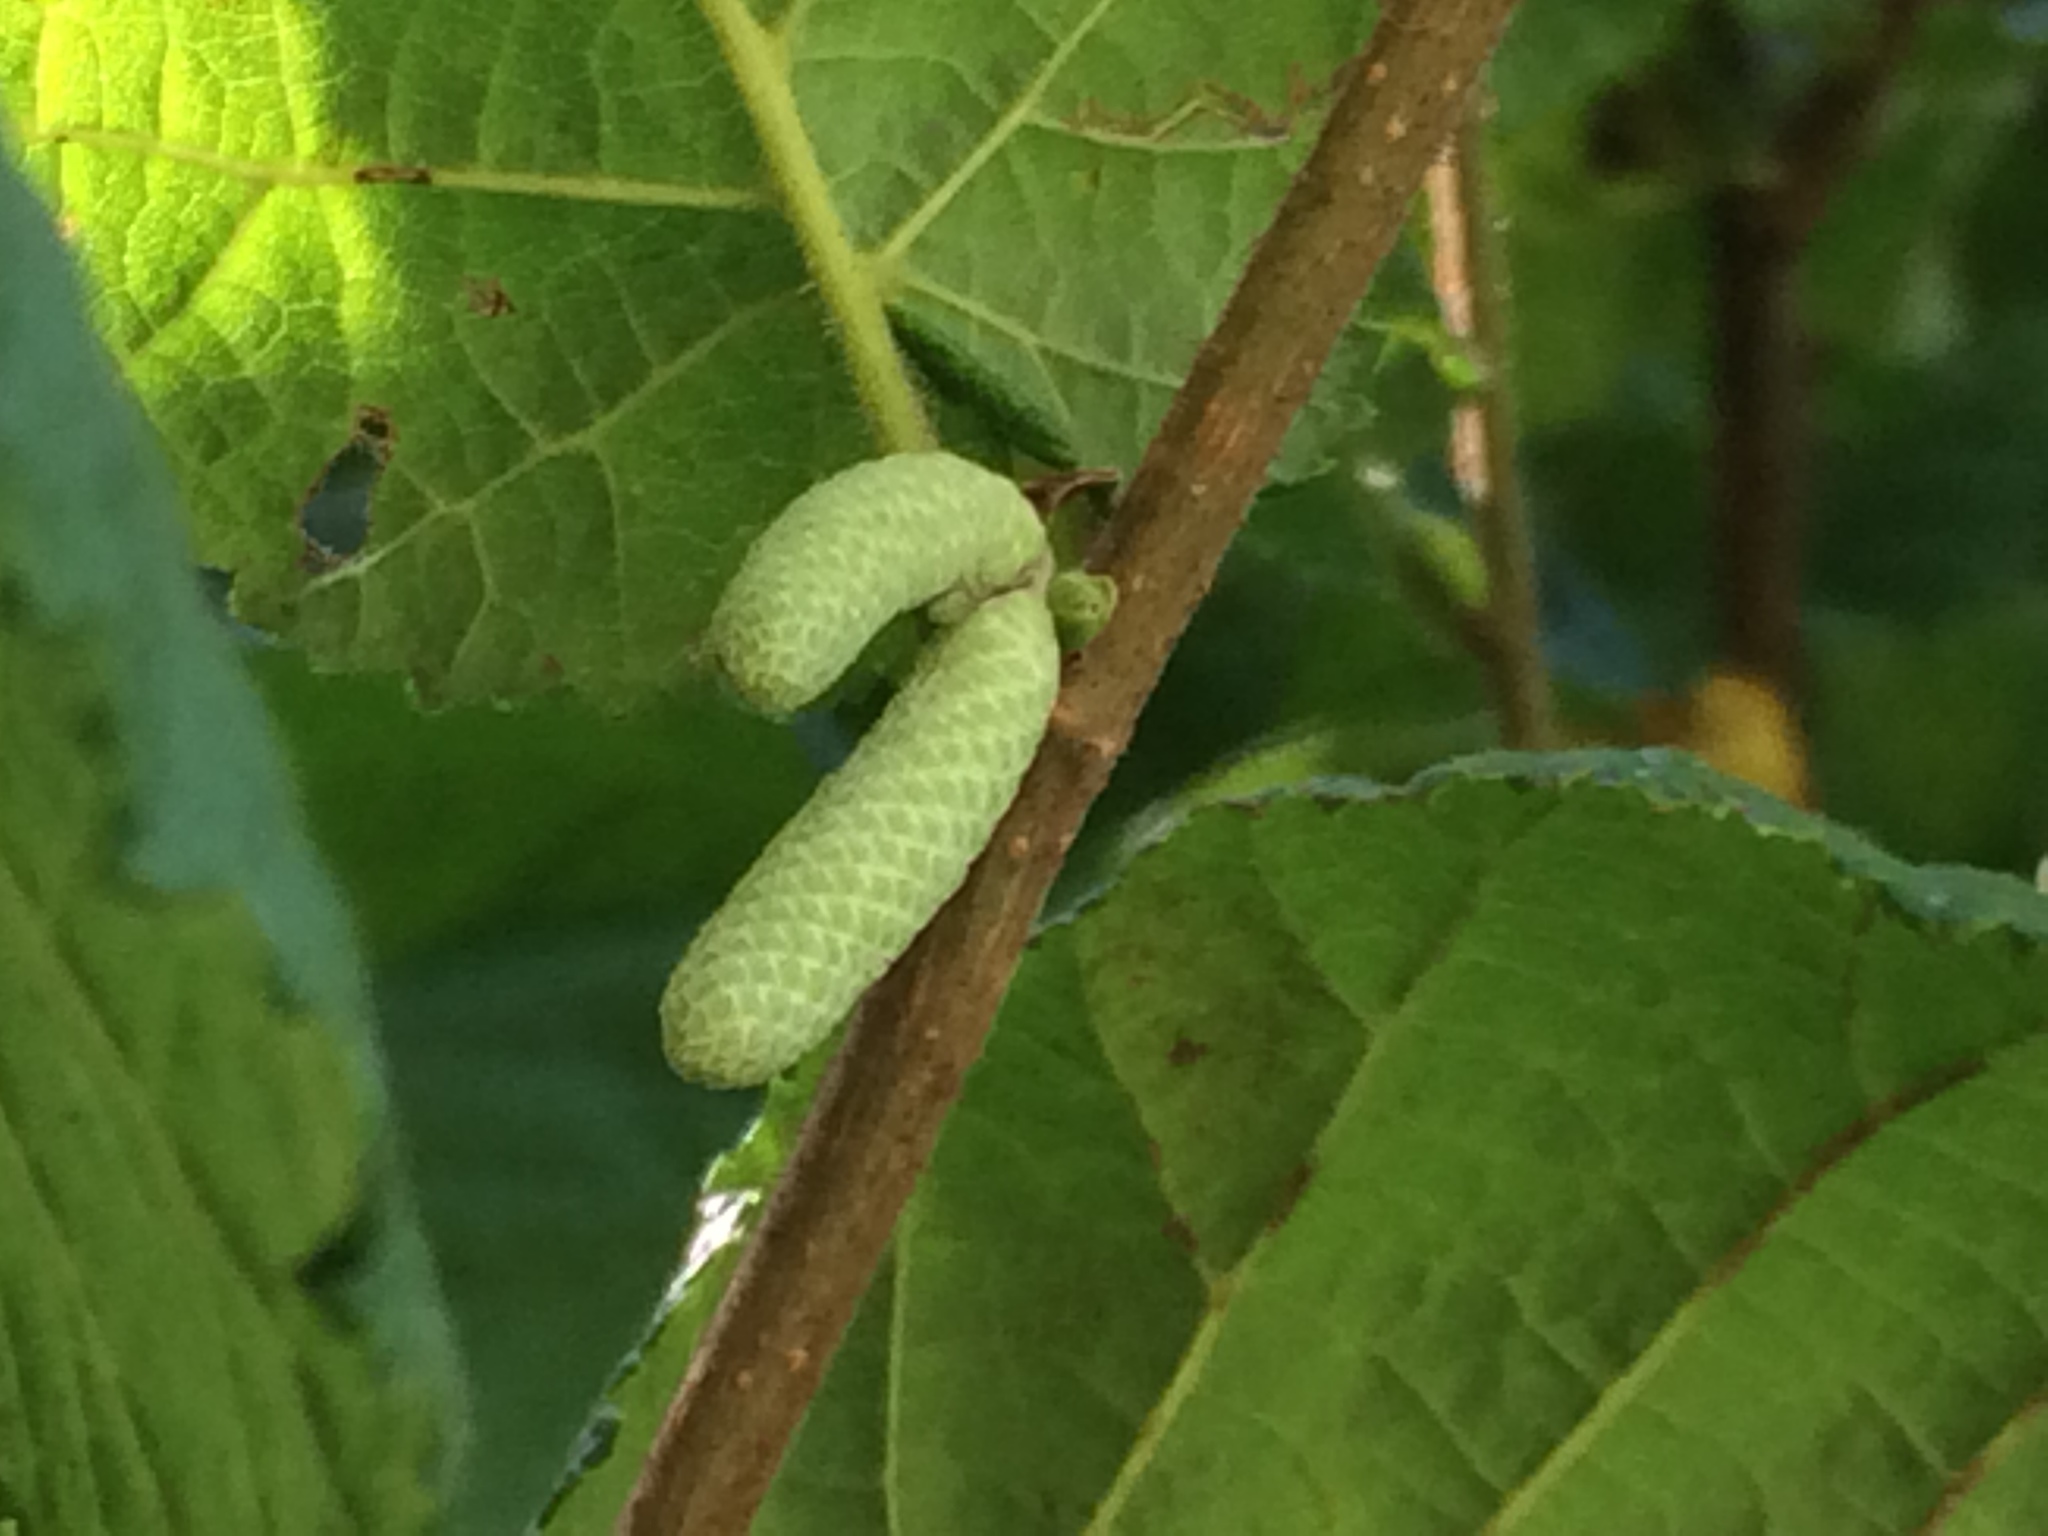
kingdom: Plantae
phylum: Tracheophyta
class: Magnoliopsida
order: Fagales
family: Betulaceae
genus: Corylus
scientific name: Corylus avellana
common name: European hazel
